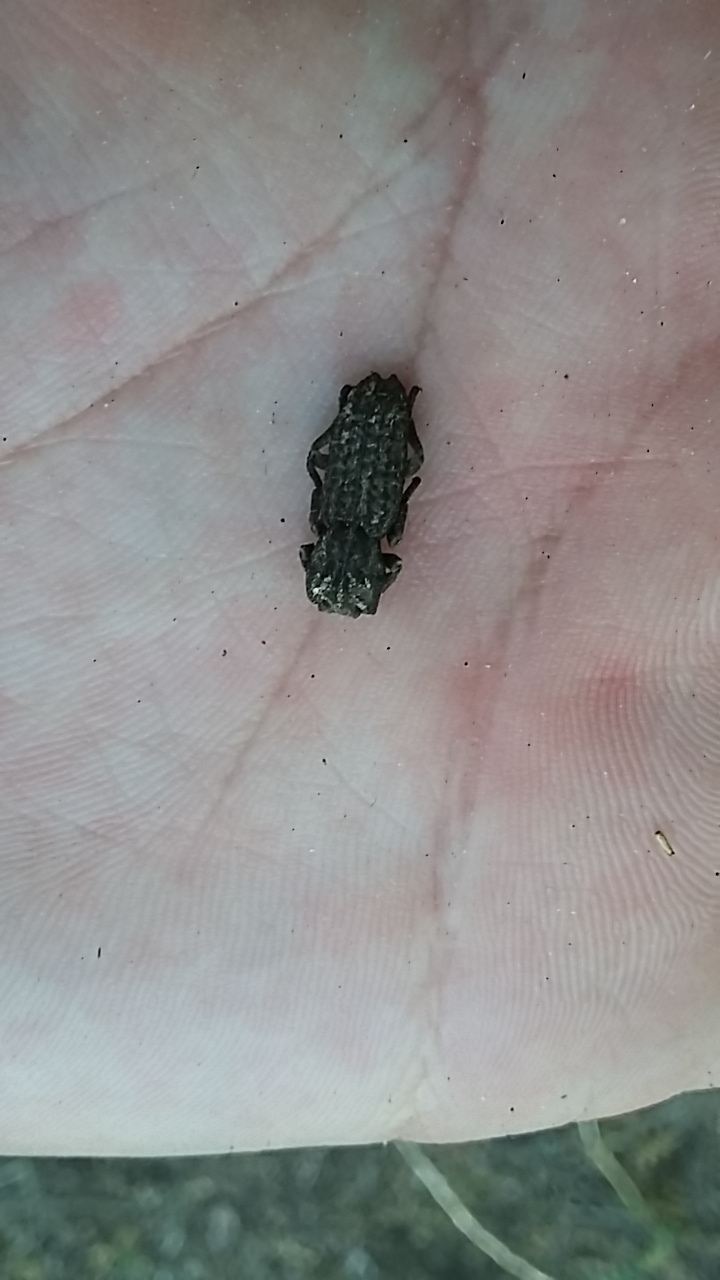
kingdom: Animalia
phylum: Arthropoda
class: Insecta
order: Coleoptera
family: Zopheridae
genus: Sesaspis
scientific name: Sesaspis
